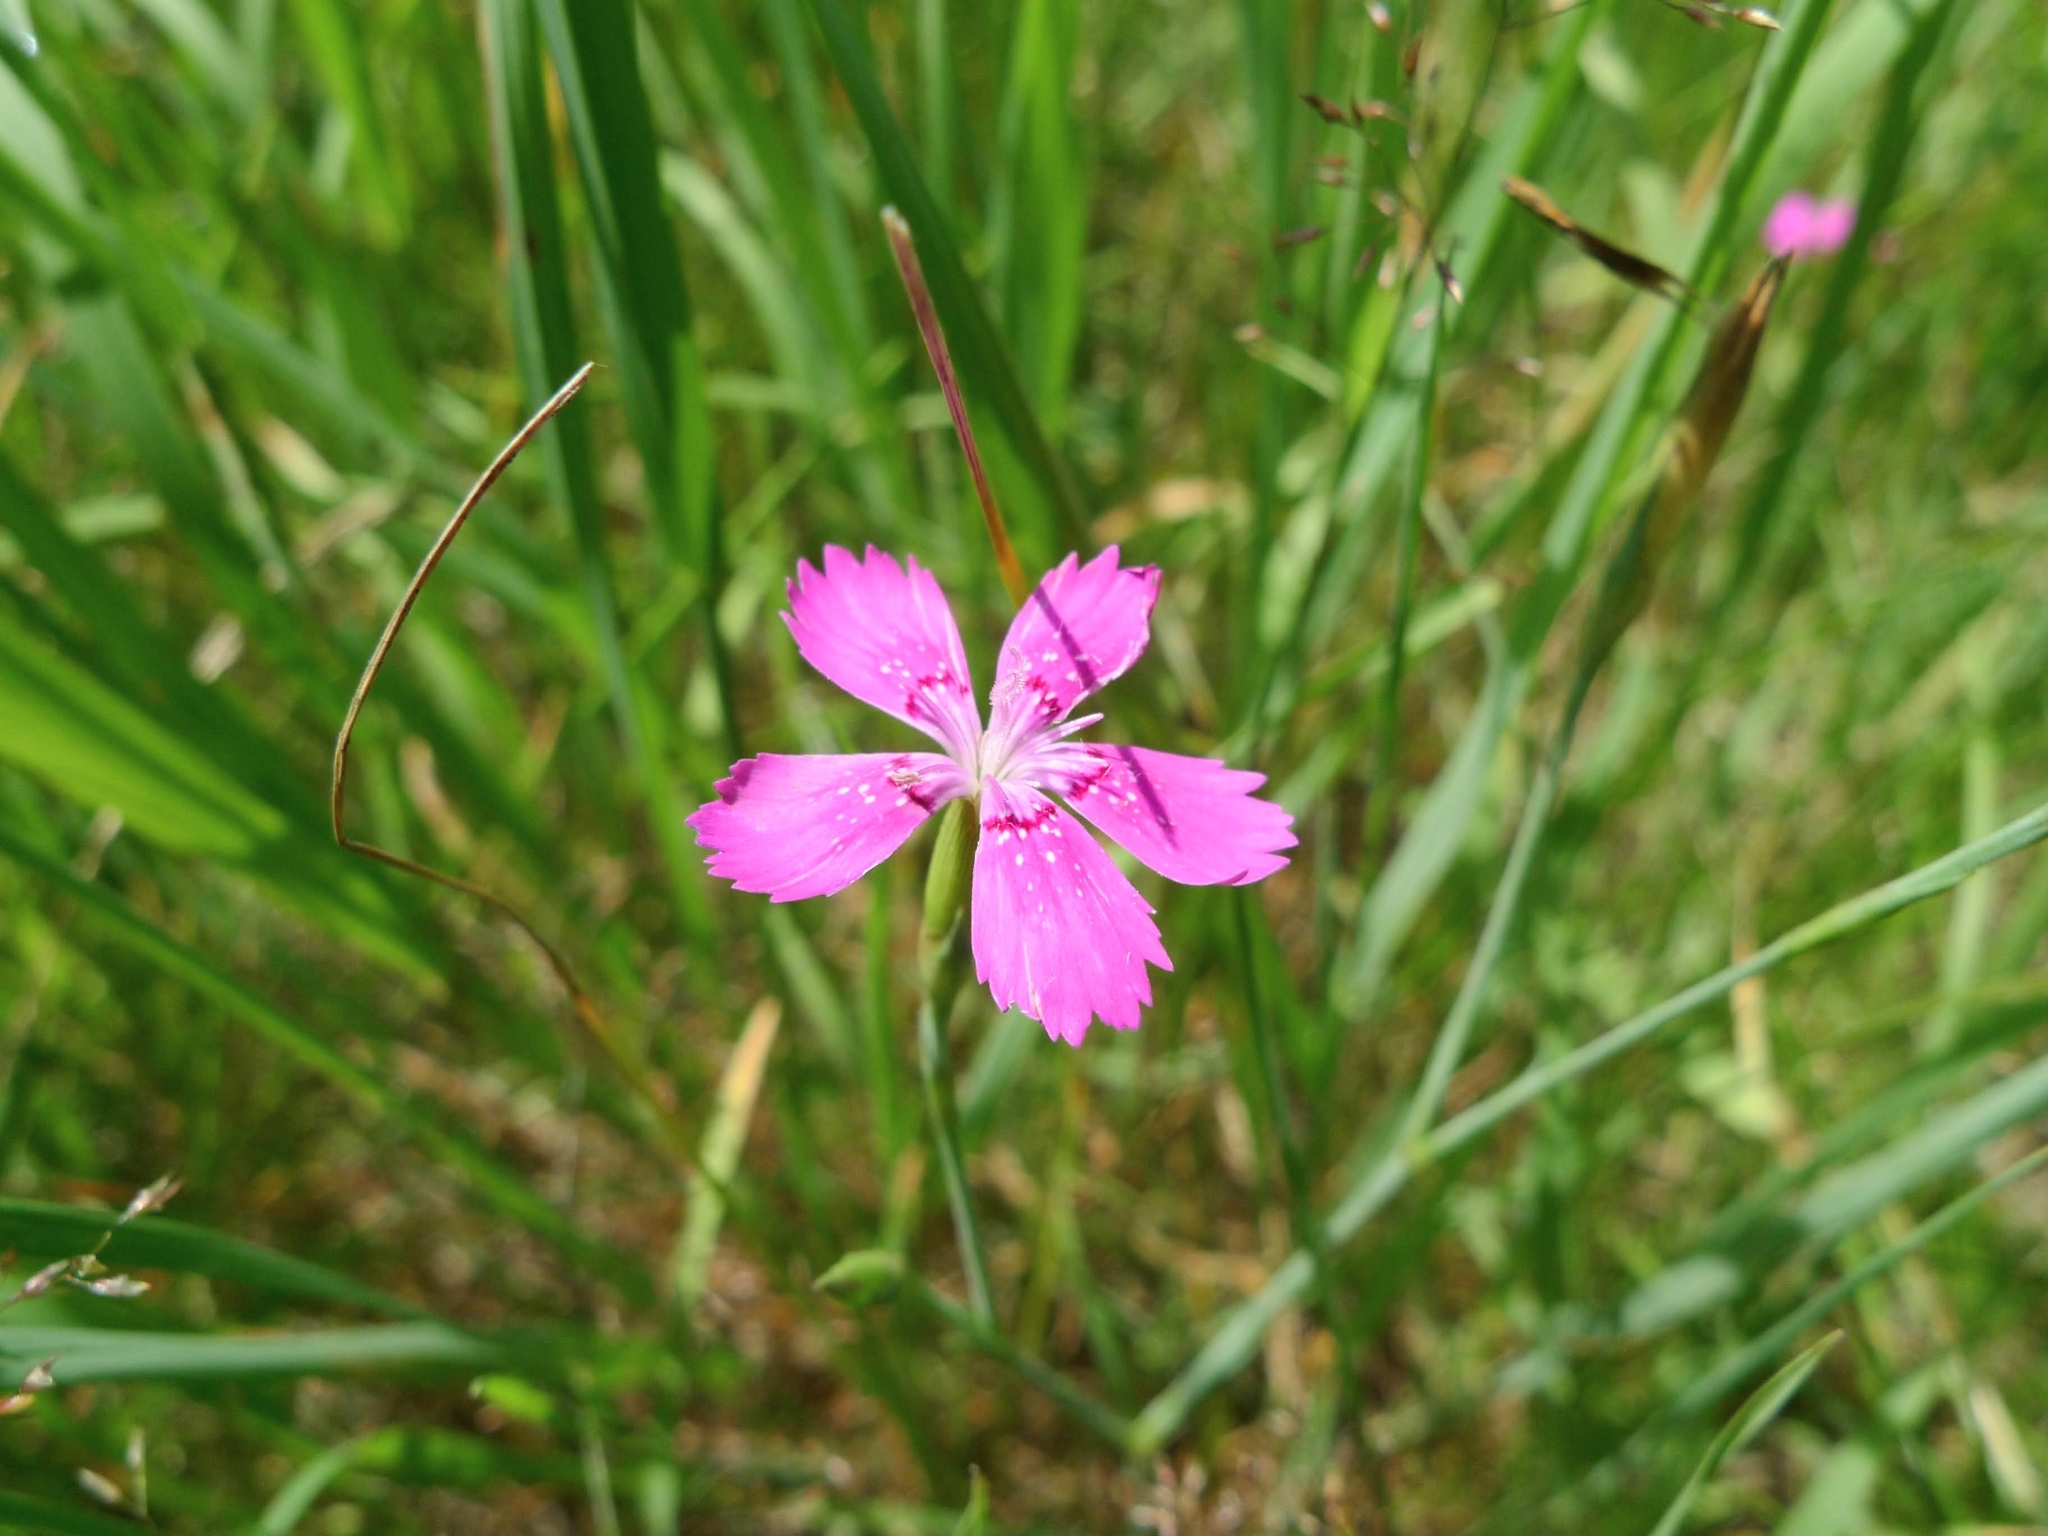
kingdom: Plantae
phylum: Tracheophyta
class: Magnoliopsida
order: Caryophyllales
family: Caryophyllaceae
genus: Dianthus
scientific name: Dianthus deltoides
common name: Maiden pink
